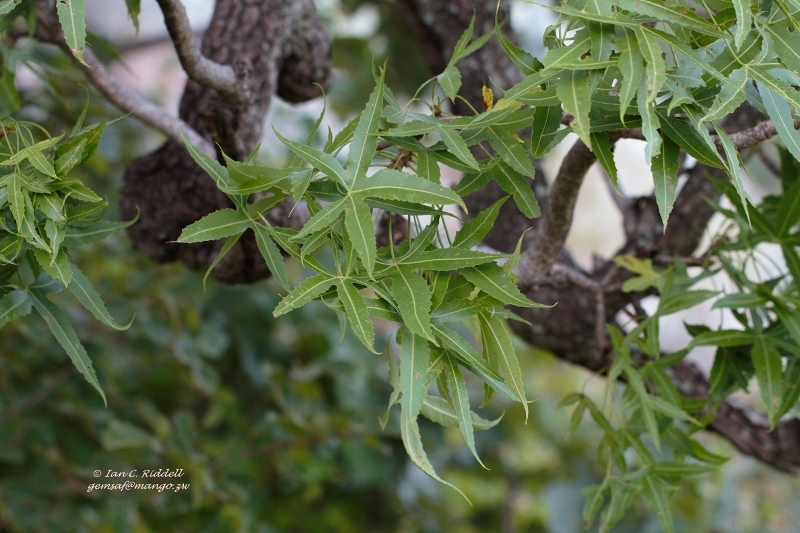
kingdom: Plantae
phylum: Tracheophyta
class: Magnoliopsida
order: Apiales
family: Araliaceae
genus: Cussonia
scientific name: Cussonia natalensis
